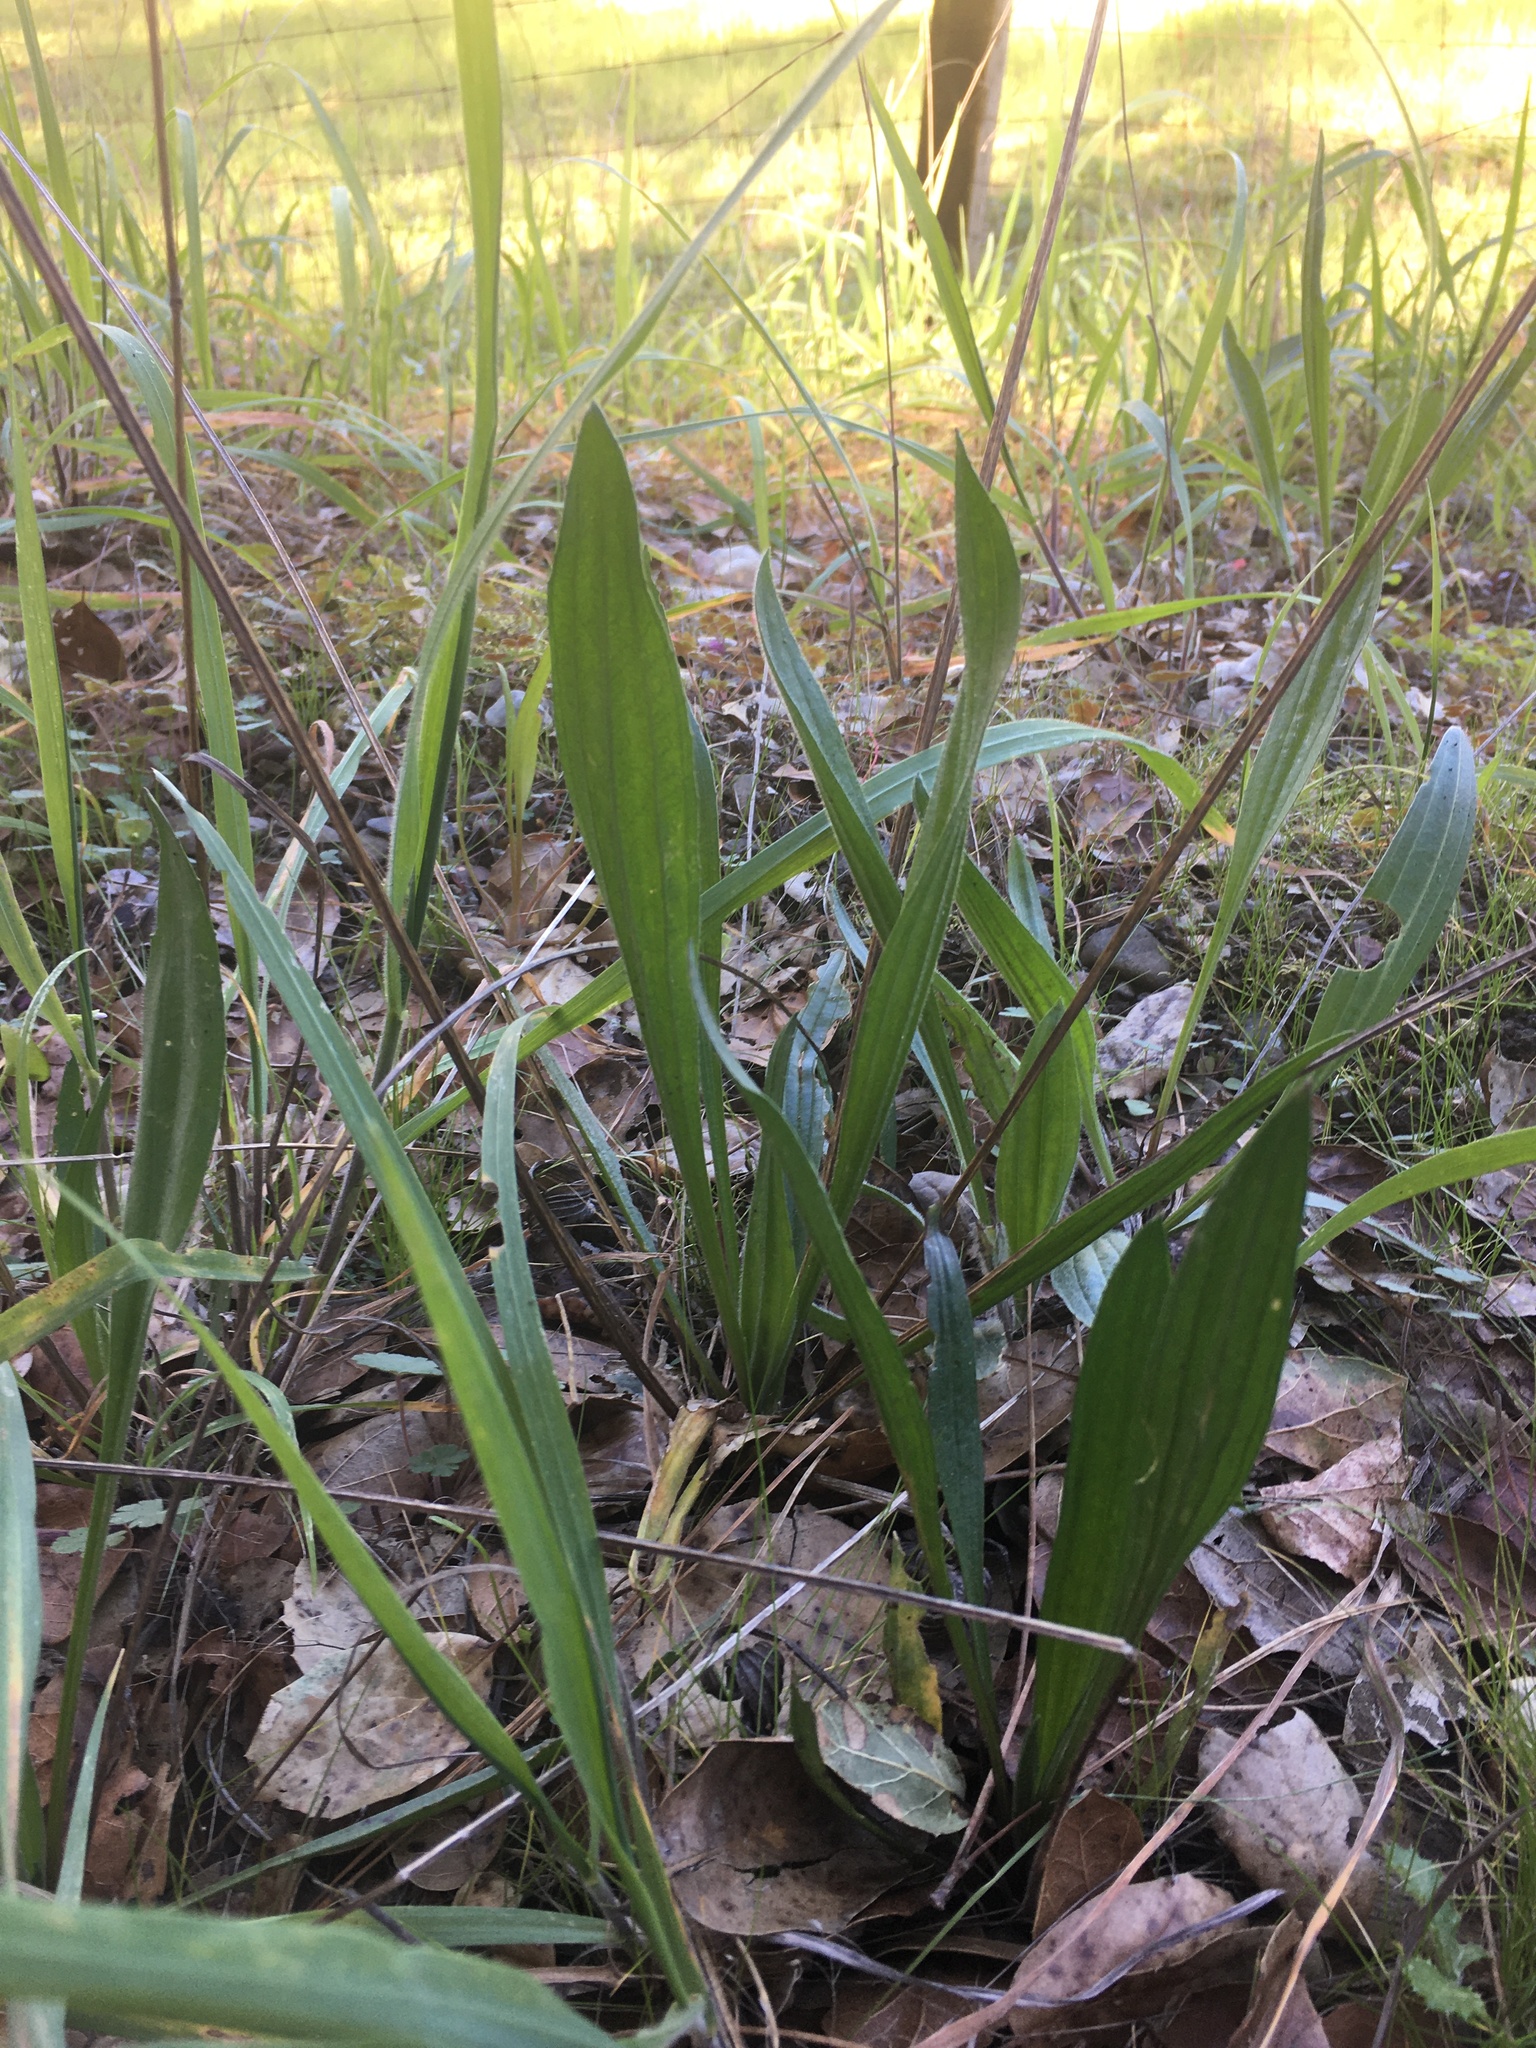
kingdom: Plantae
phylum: Tracheophyta
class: Magnoliopsida
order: Lamiales
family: Plantaginaceae
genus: Plantago
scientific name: Plantago lanceolata
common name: Ribwort plantain
